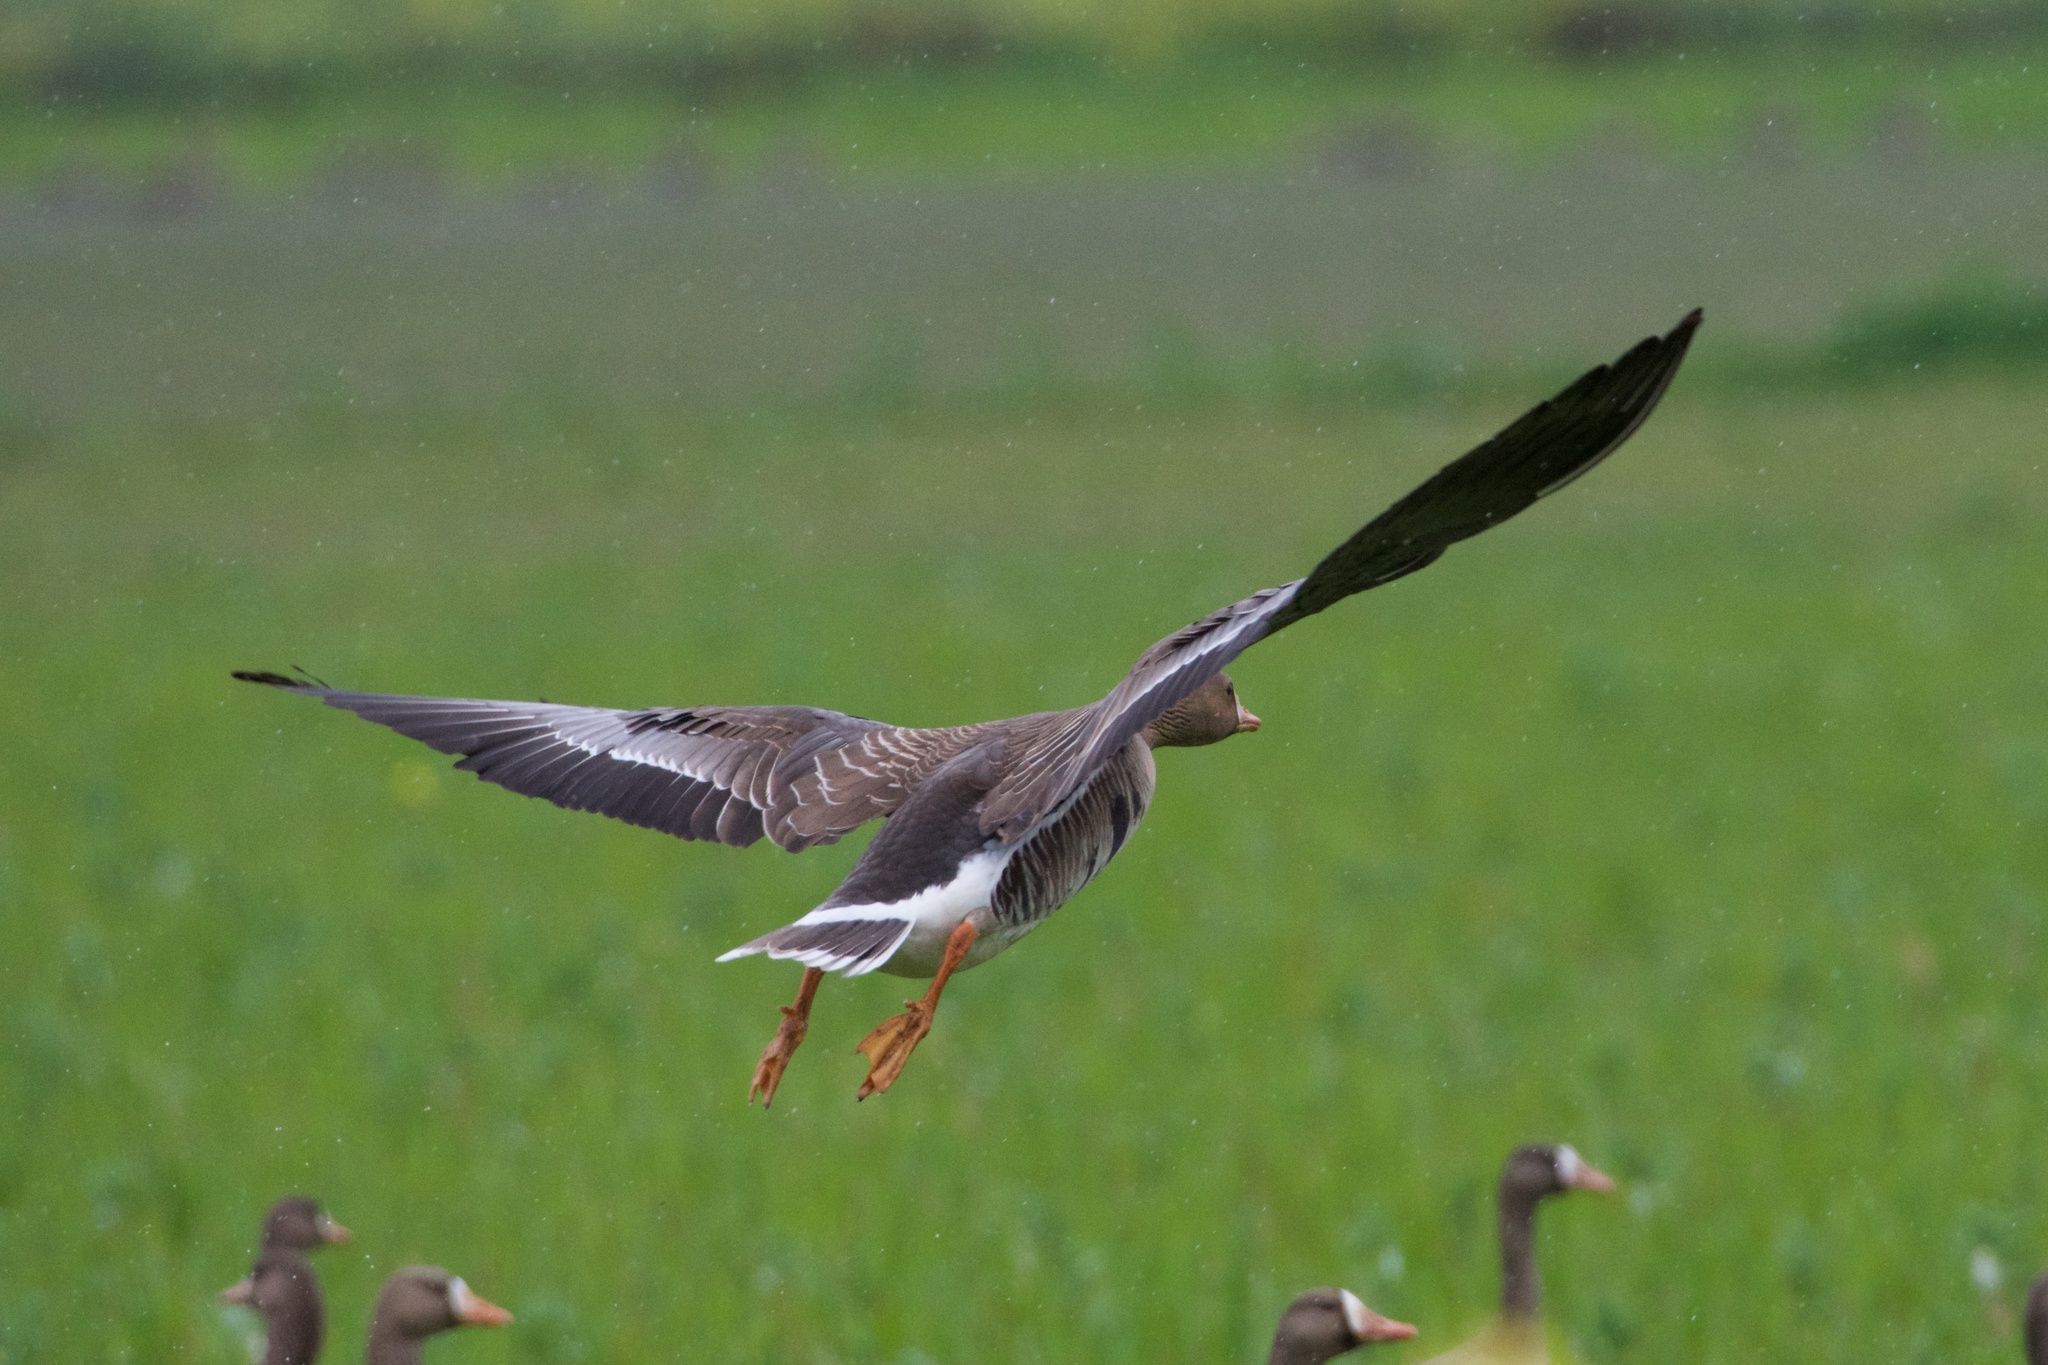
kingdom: Animalia
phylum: Chordata
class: Aves
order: Anseriformes
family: Anatidae
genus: Anser
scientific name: Anser albifrons
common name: Greater white-fronted goose
